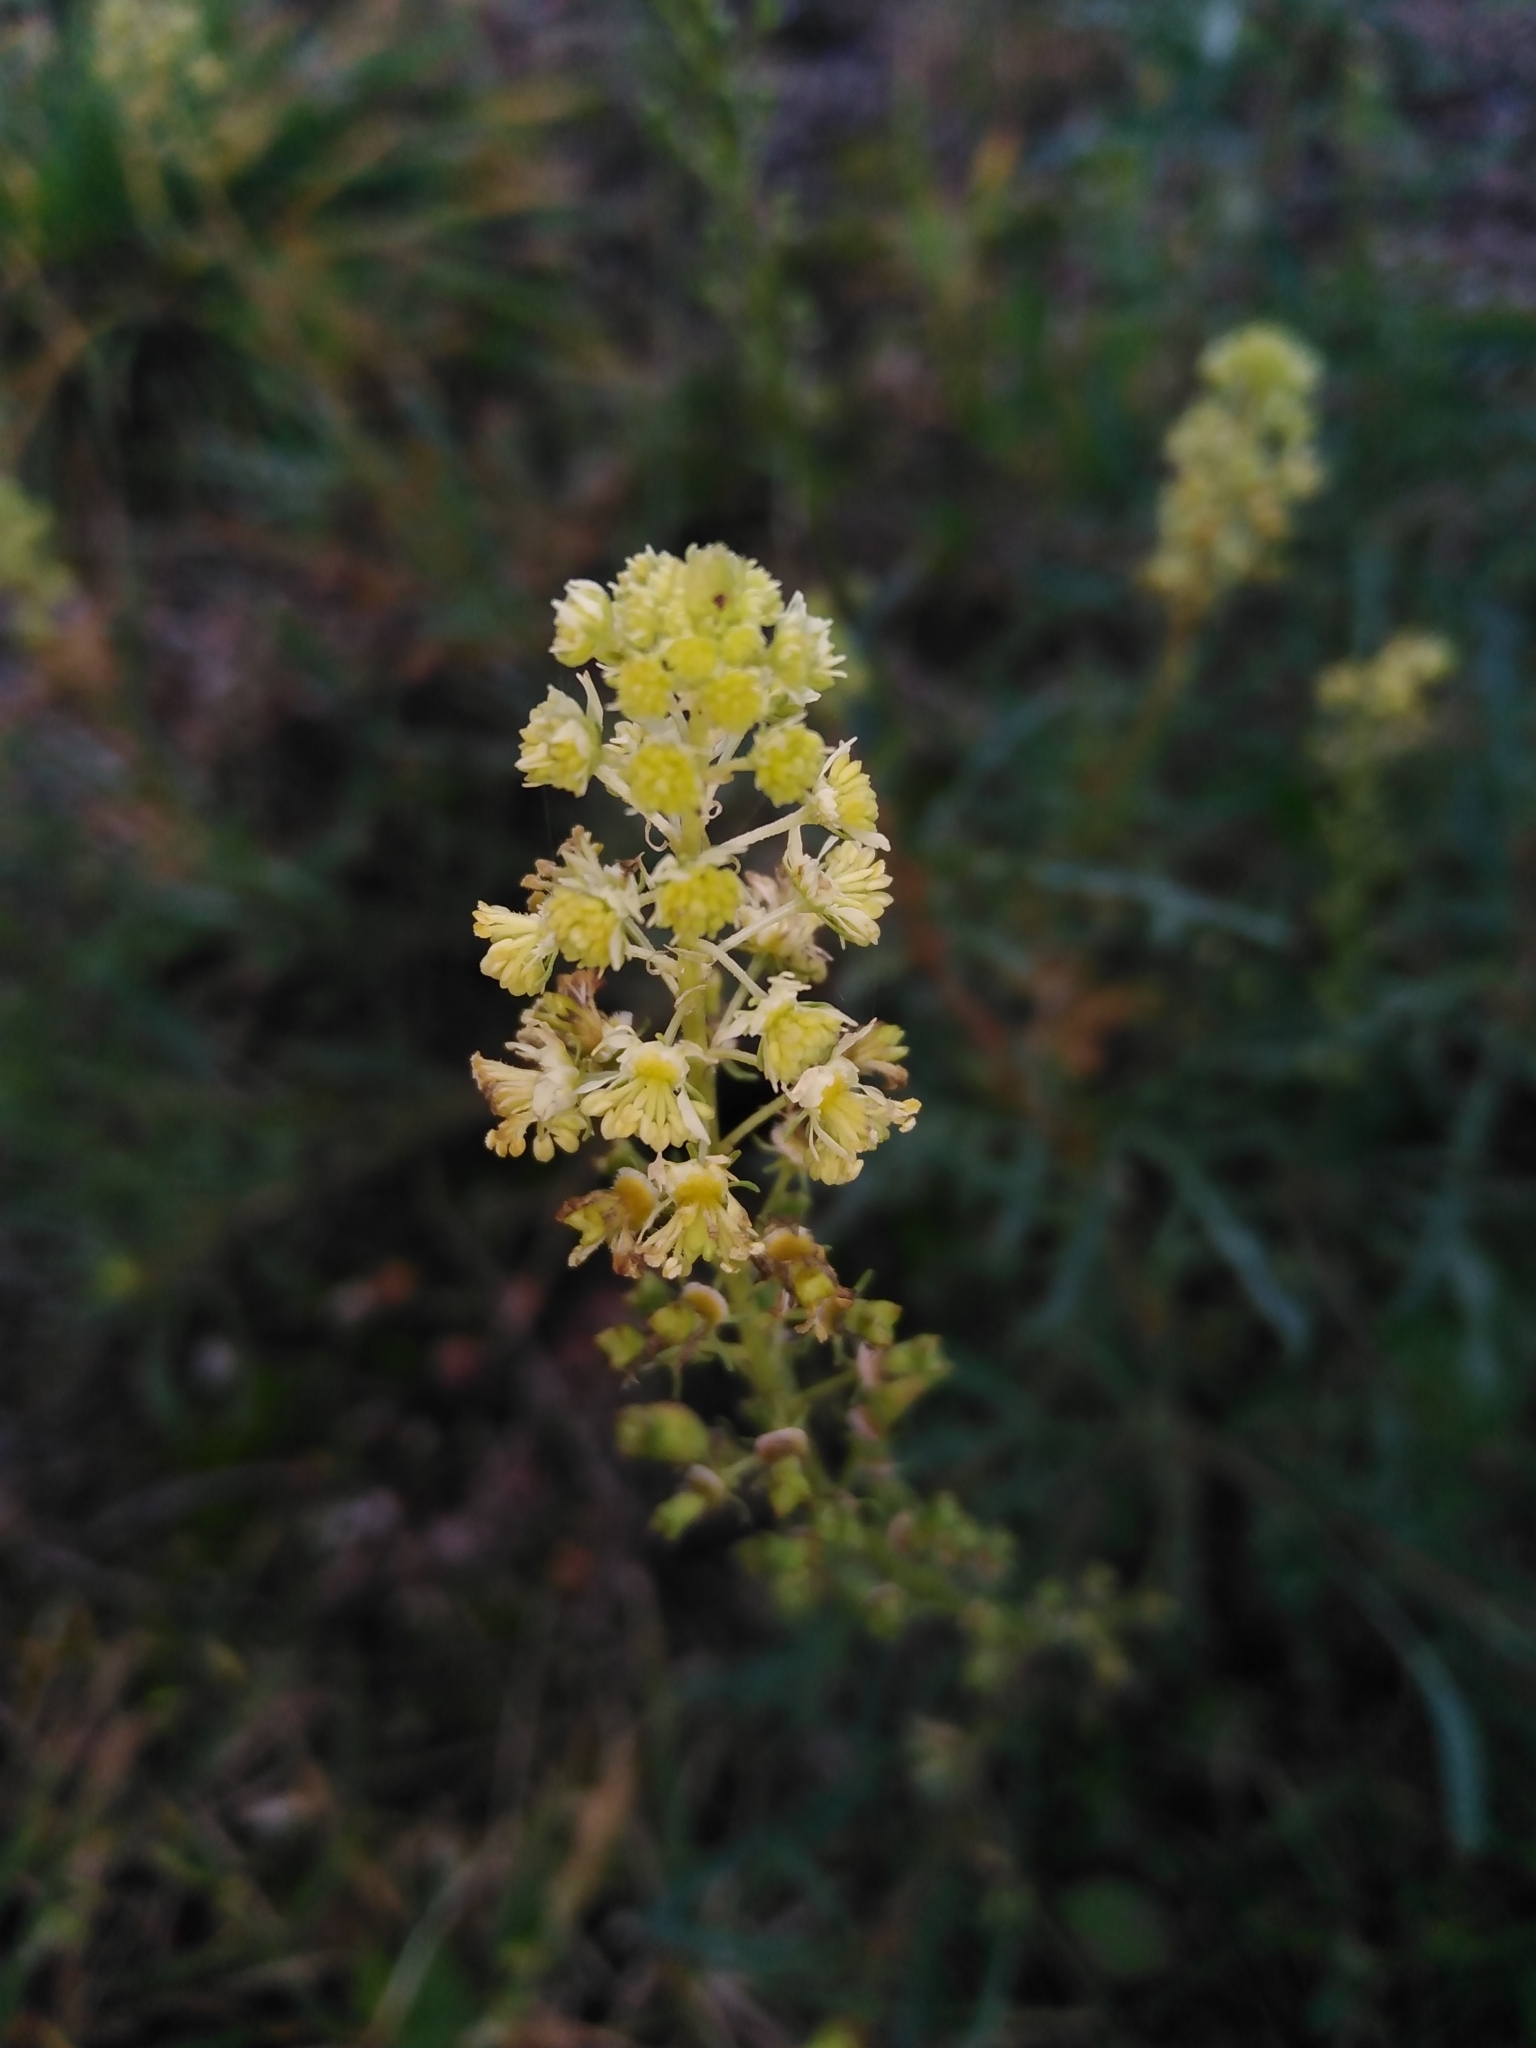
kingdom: Plantae
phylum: Tracheophyta
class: Magnoliopsida
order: Brassicales
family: Resedaceae
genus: Reseda
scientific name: Reseda lutea
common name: Wild mignonette
